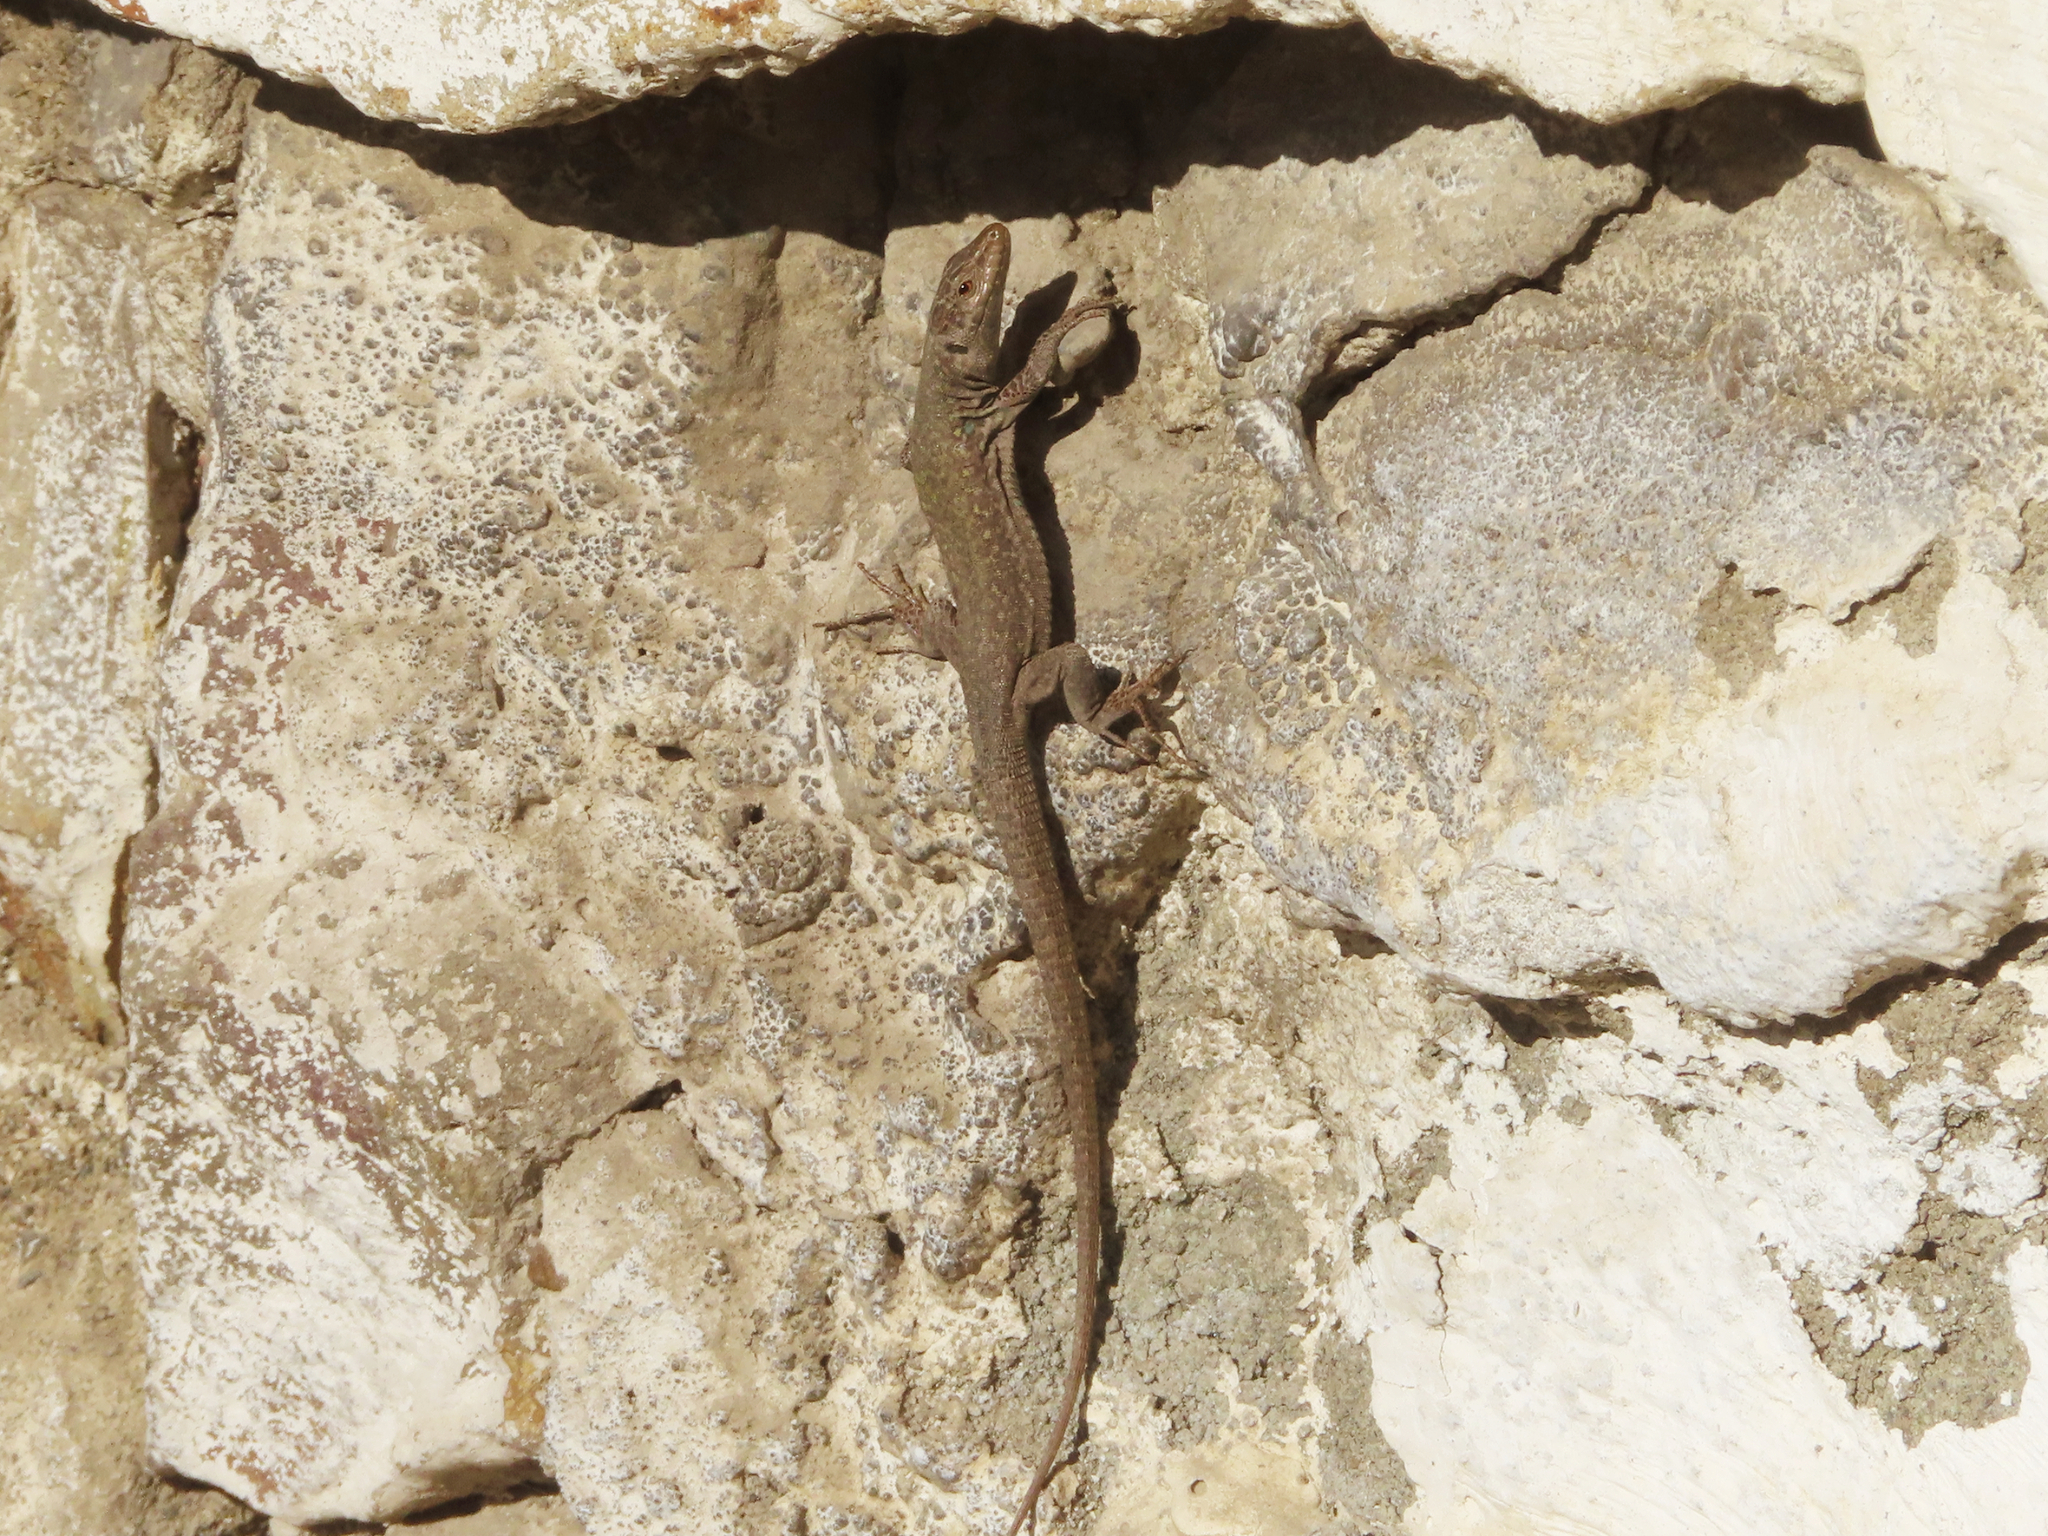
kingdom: Animalia
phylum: Chordata
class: Squamata
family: Lacertidae
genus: Podarcis
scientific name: Podarcis siculus
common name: Italian wall lizard
